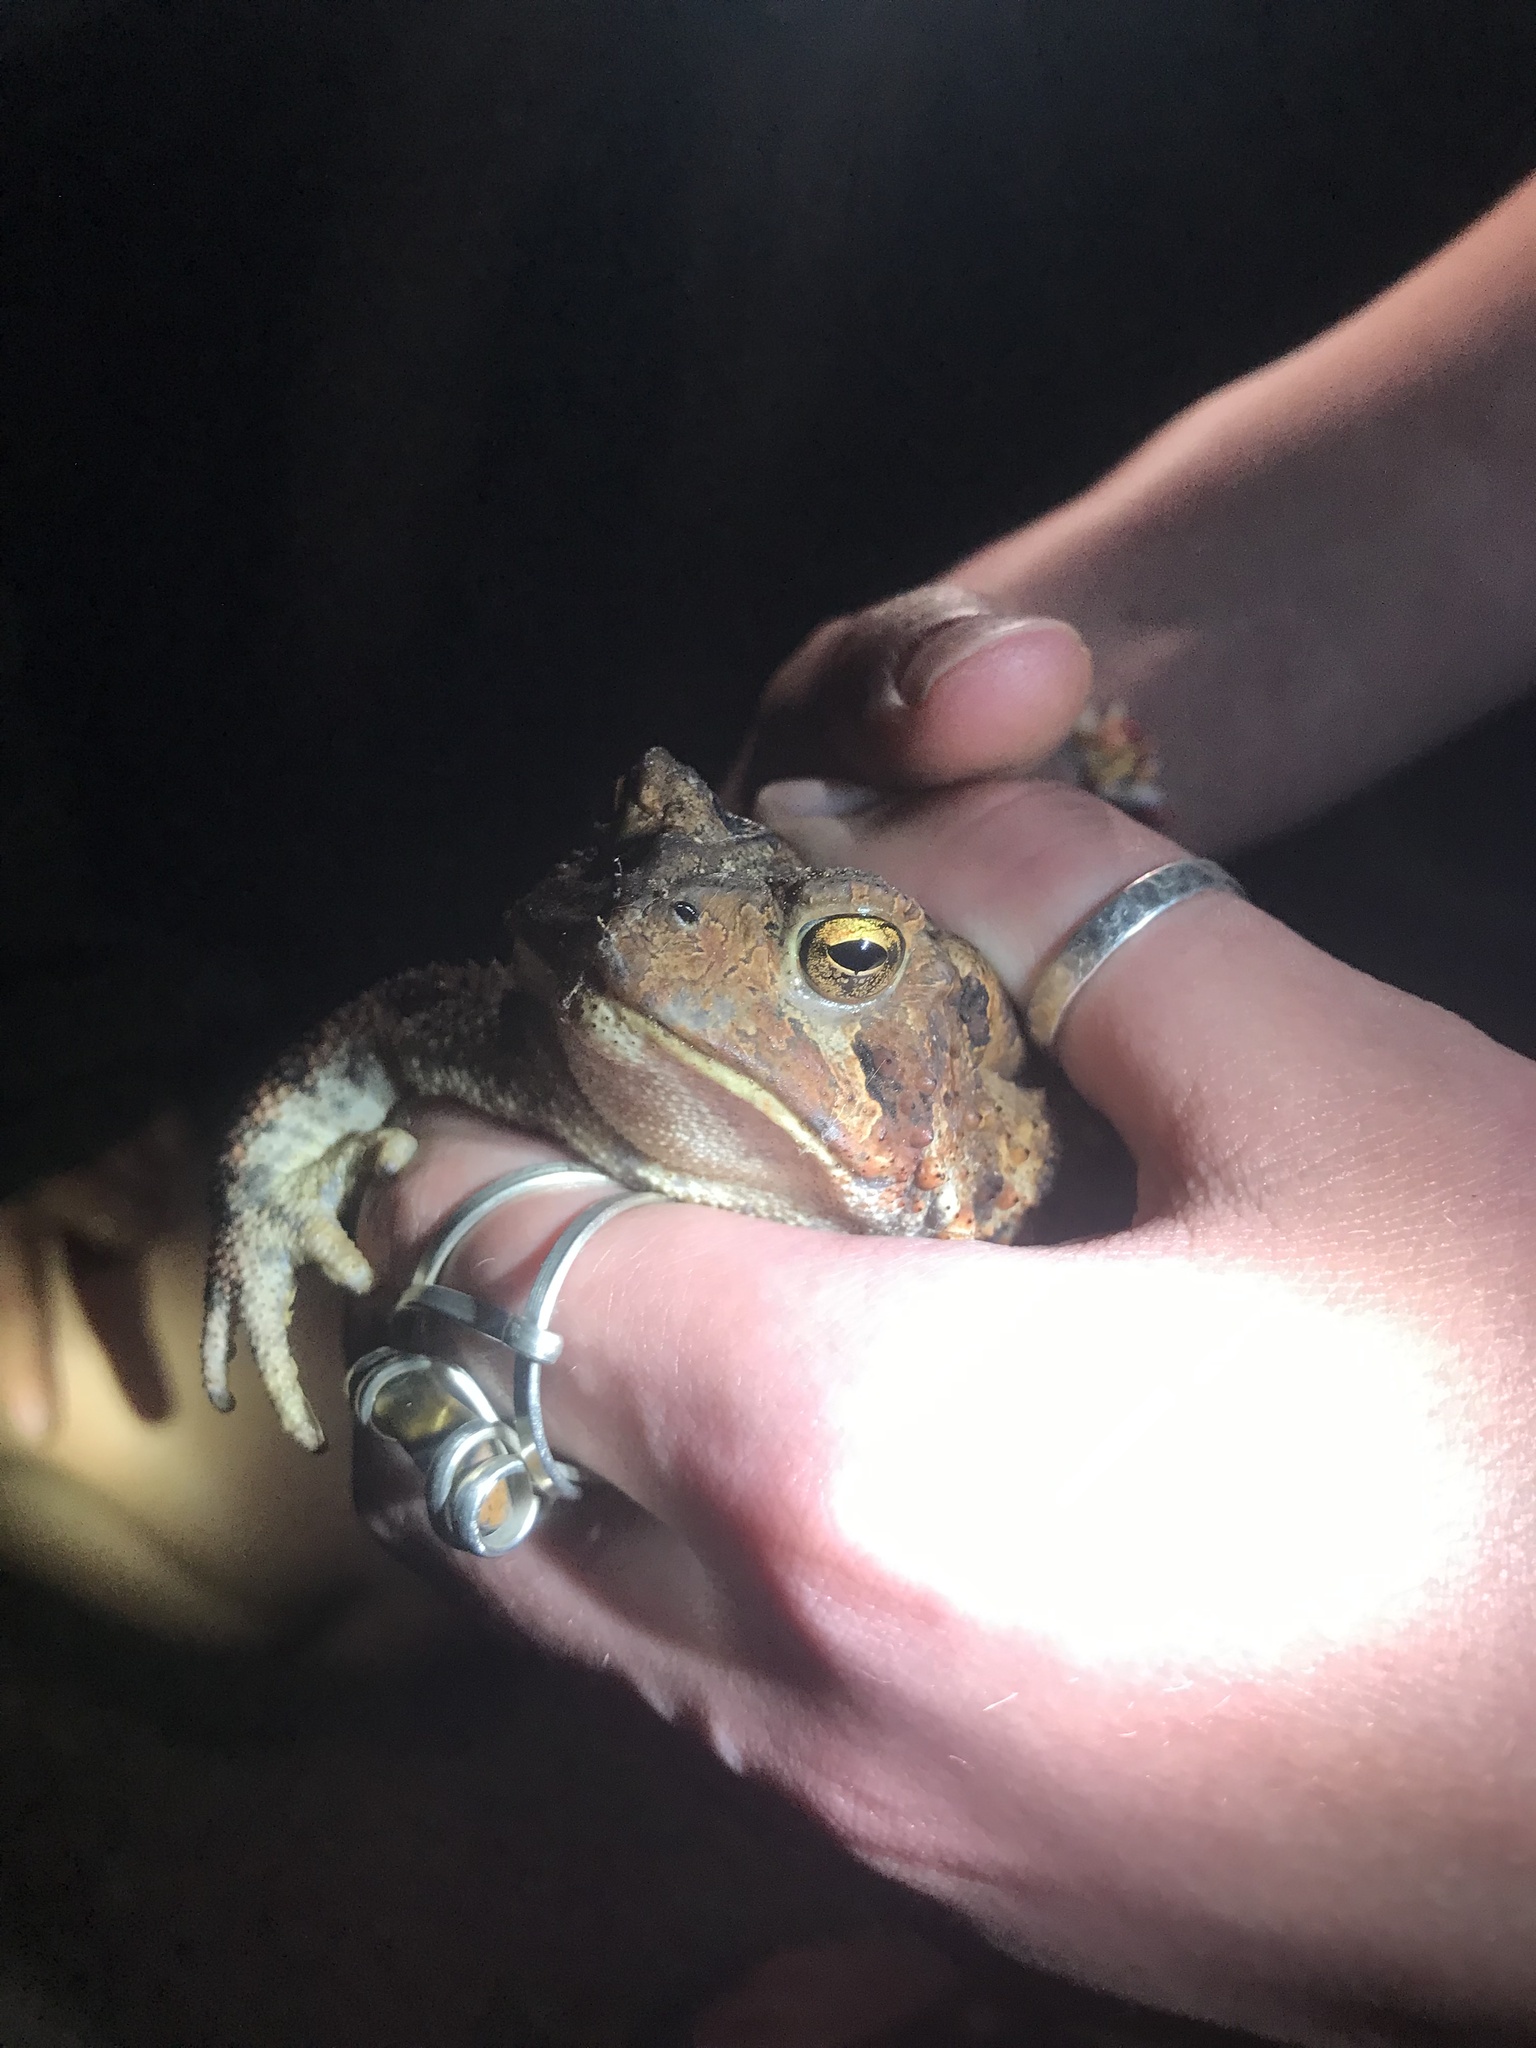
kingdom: Animalia
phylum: Chordata
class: Amphibia
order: Anura
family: Bufonidae
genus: Anaxyrus
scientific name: Anaxyrus americanus
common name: American toad
